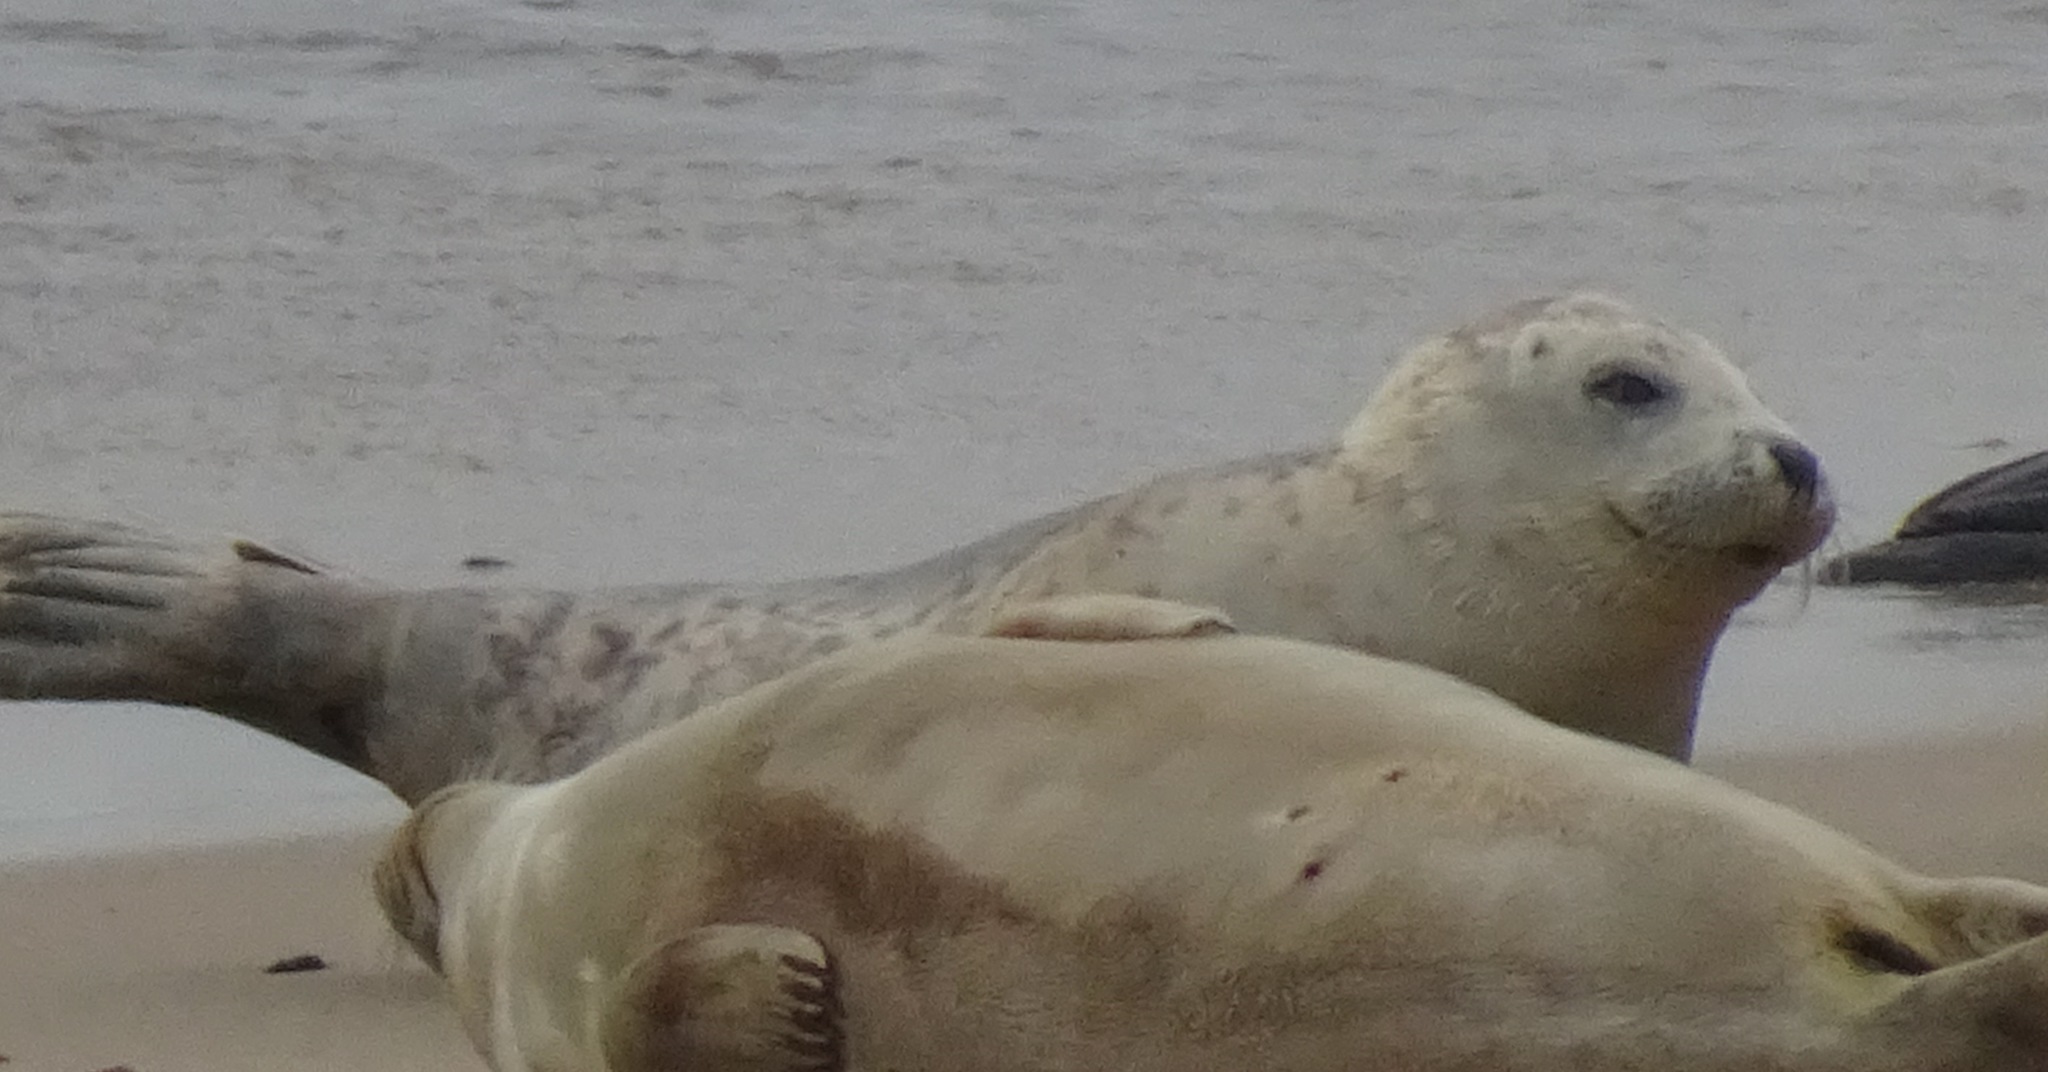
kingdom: Animalia
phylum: Chordata
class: Mammalia
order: Carnivora
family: Phocidae
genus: Phoca
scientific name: Phoca vitulina
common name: Harbor seal
